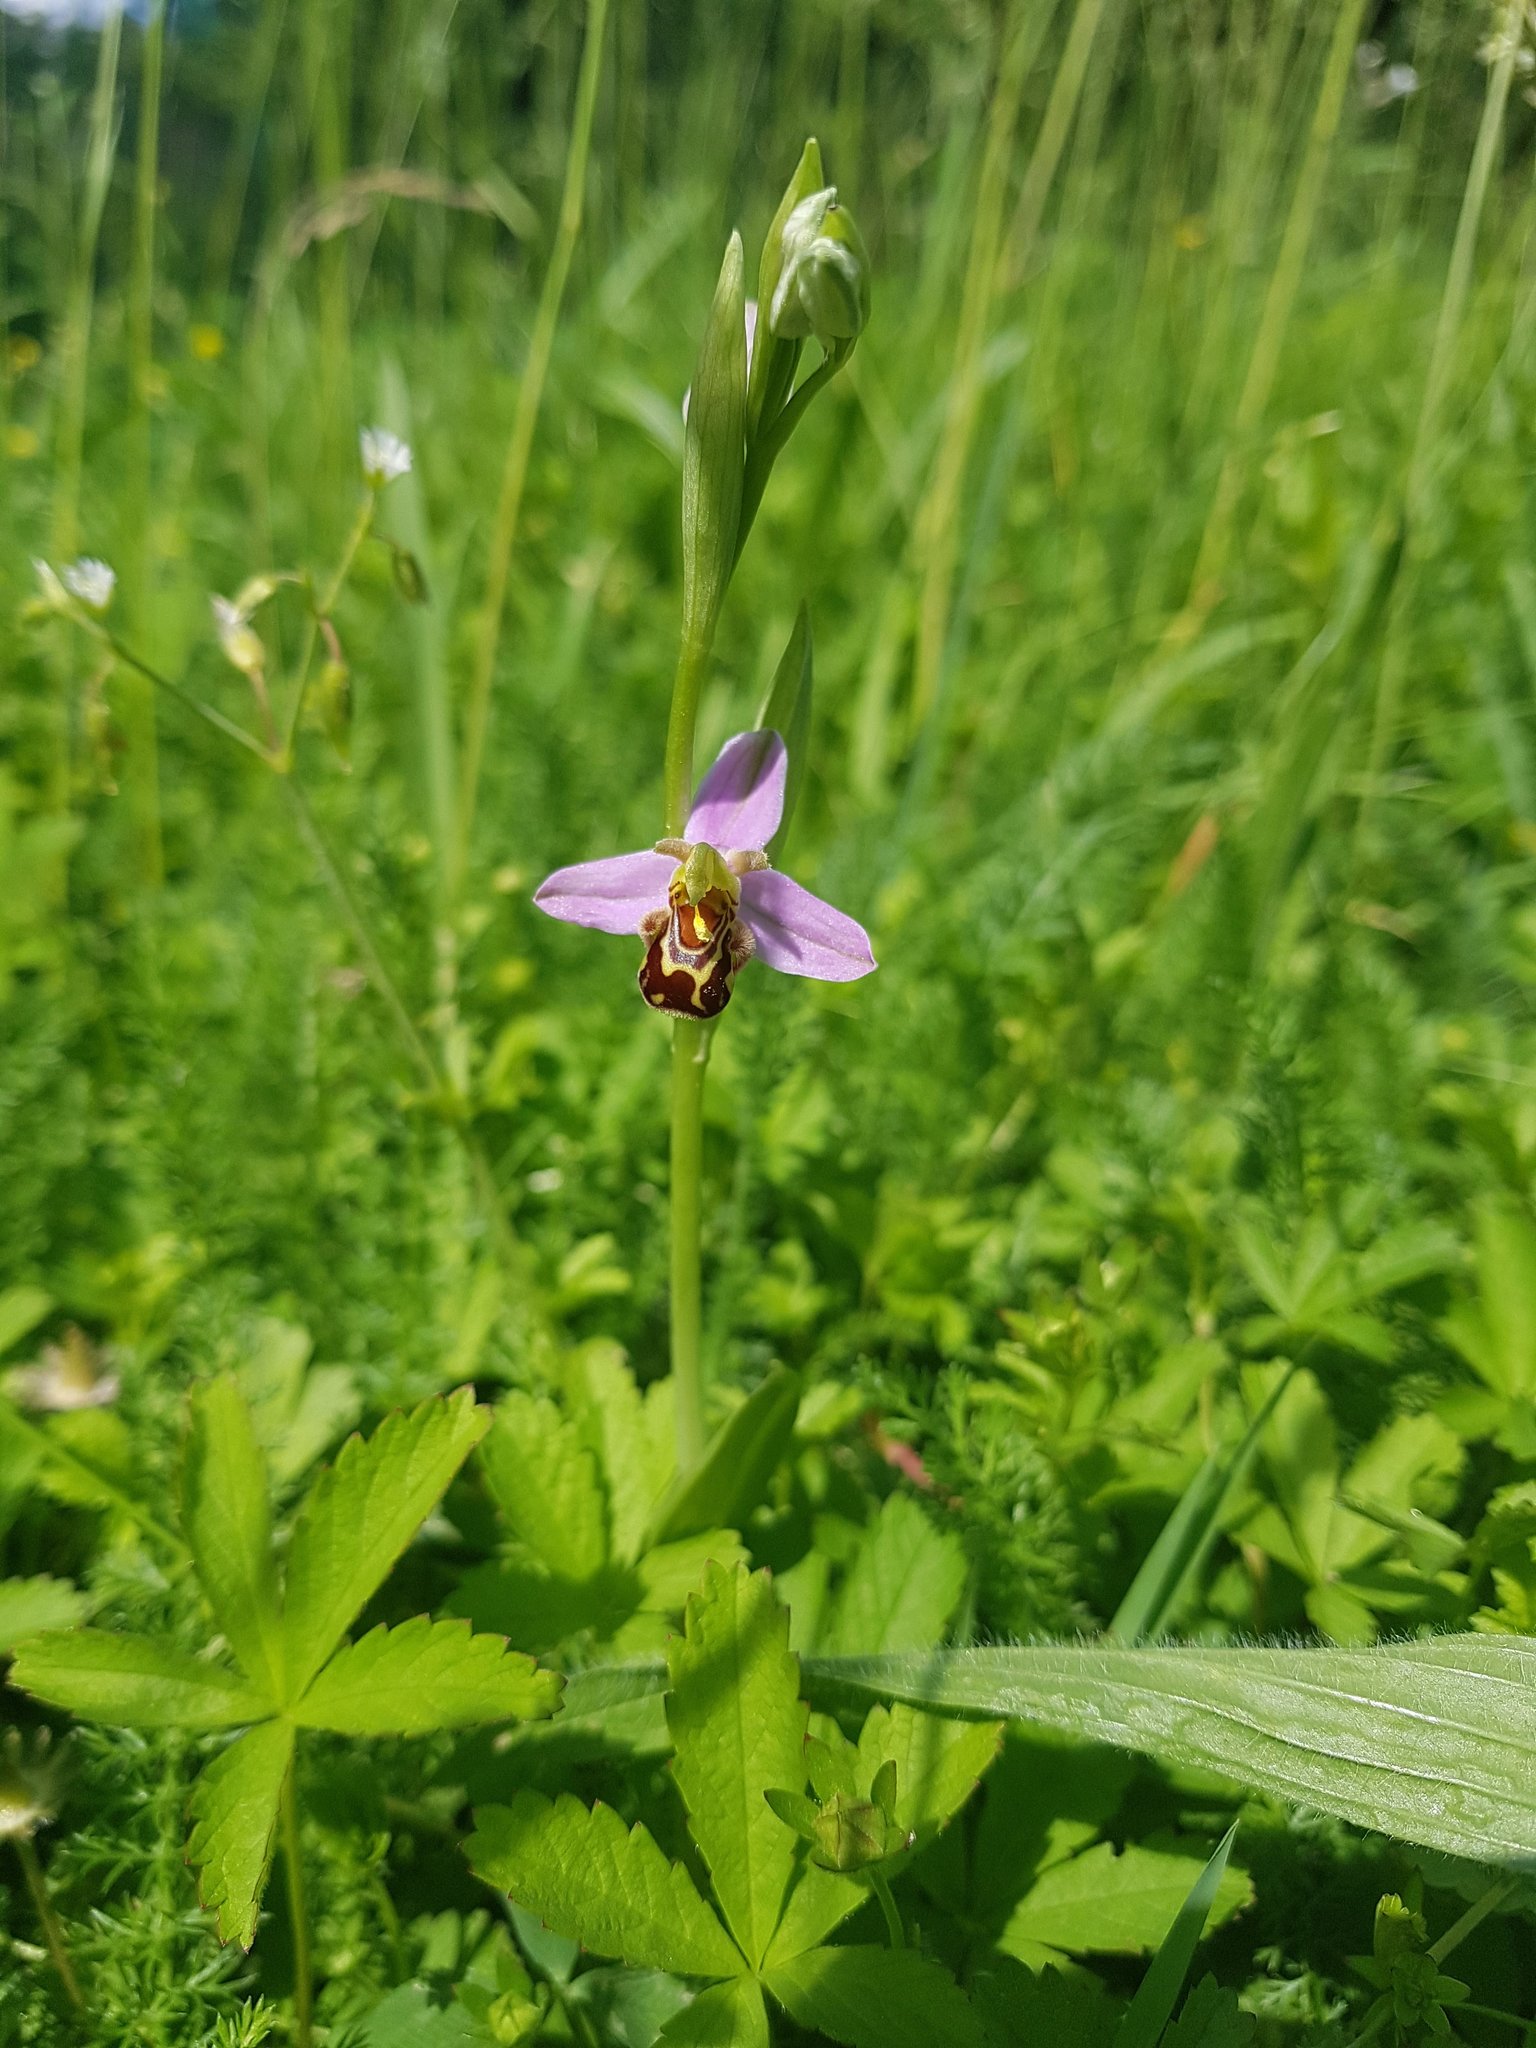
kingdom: Plantae
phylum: Tracheophyta
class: Liliopsida
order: Asparagales
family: Orchidaceae
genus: Ophrys
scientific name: Ophrys apifera
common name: Bee orchid
